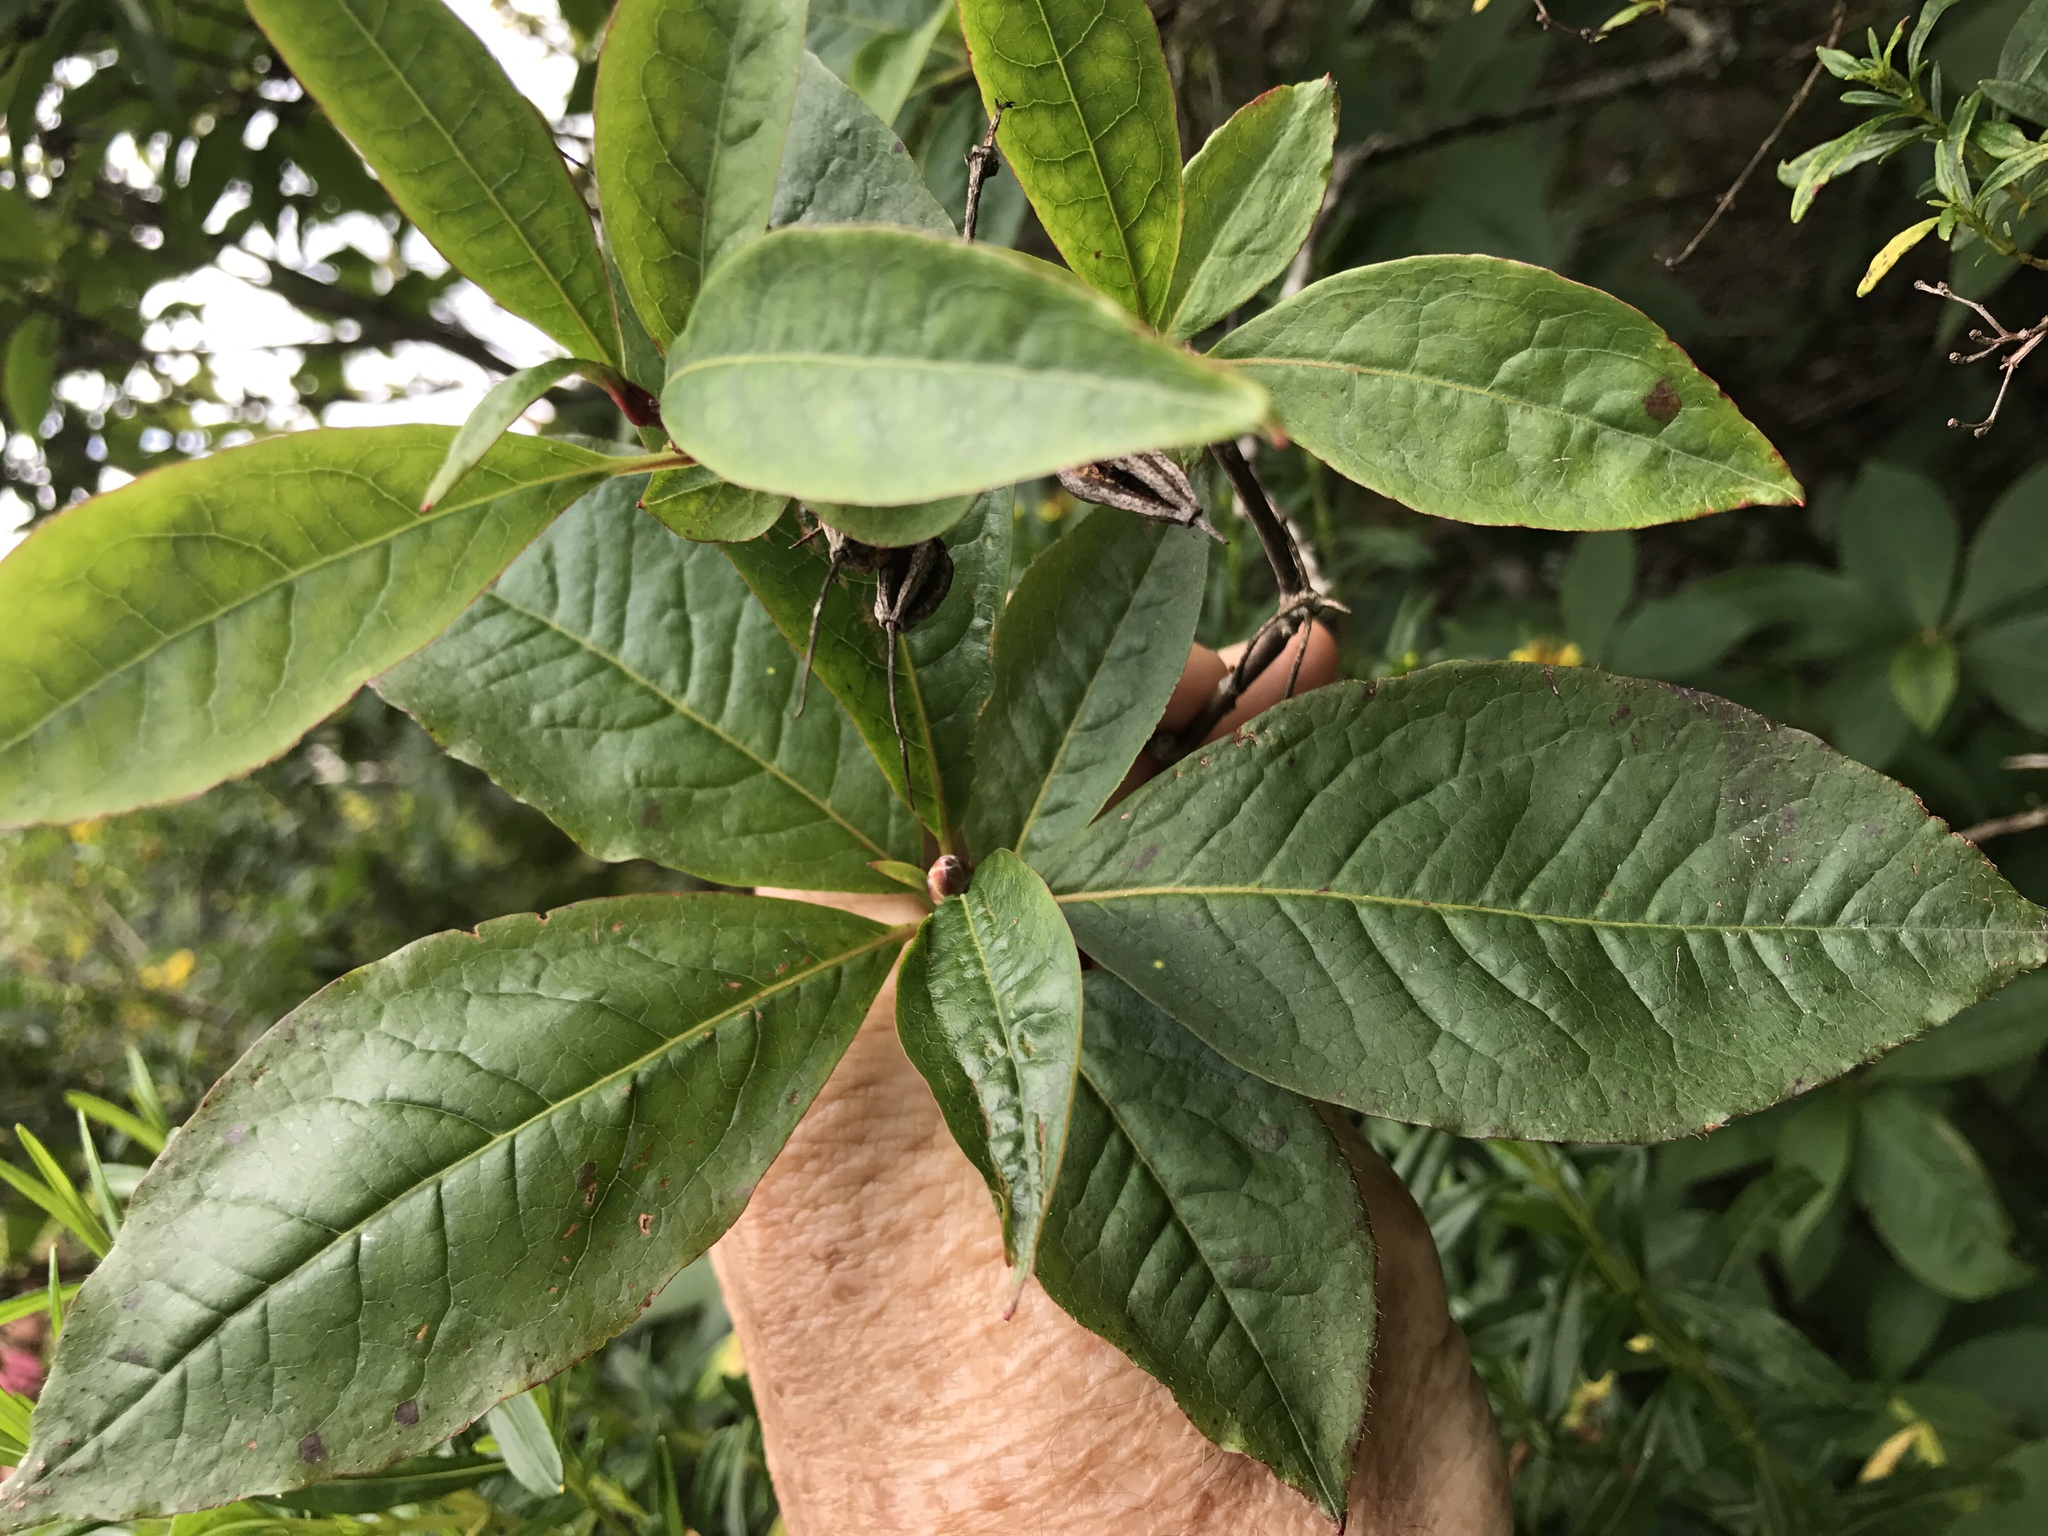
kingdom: Plantae
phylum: Tracheophyta
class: Magnoliopsida
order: Ericales
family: Ericaceae
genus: Rhododendron
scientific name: Rhododendron vaseyi
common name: Pink-shell azalea
